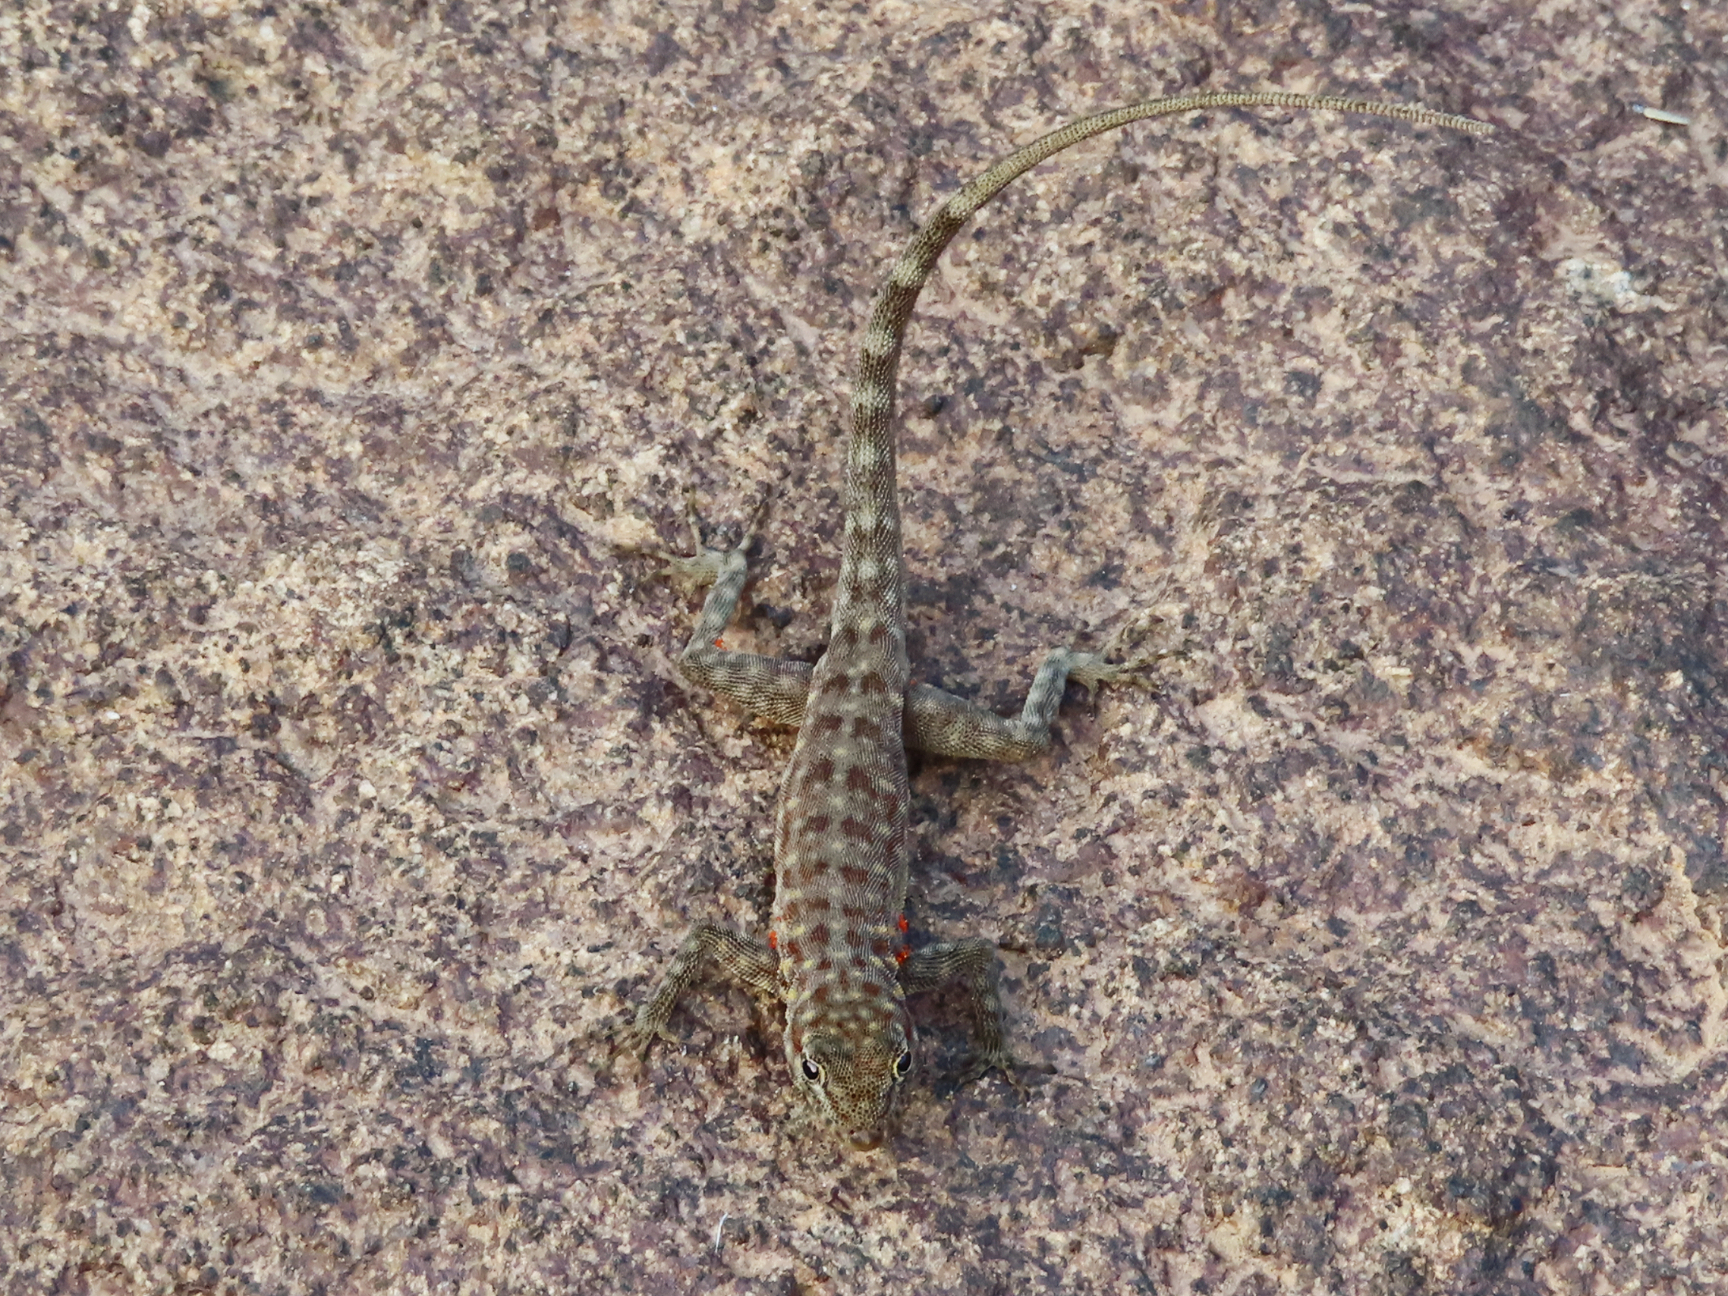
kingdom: Animalia
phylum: Chordata
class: Squamata
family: Sphaerodactylidae
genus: Pristurus
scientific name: Pristurus celerrimus
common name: Bar-tailed semaphore gecko
